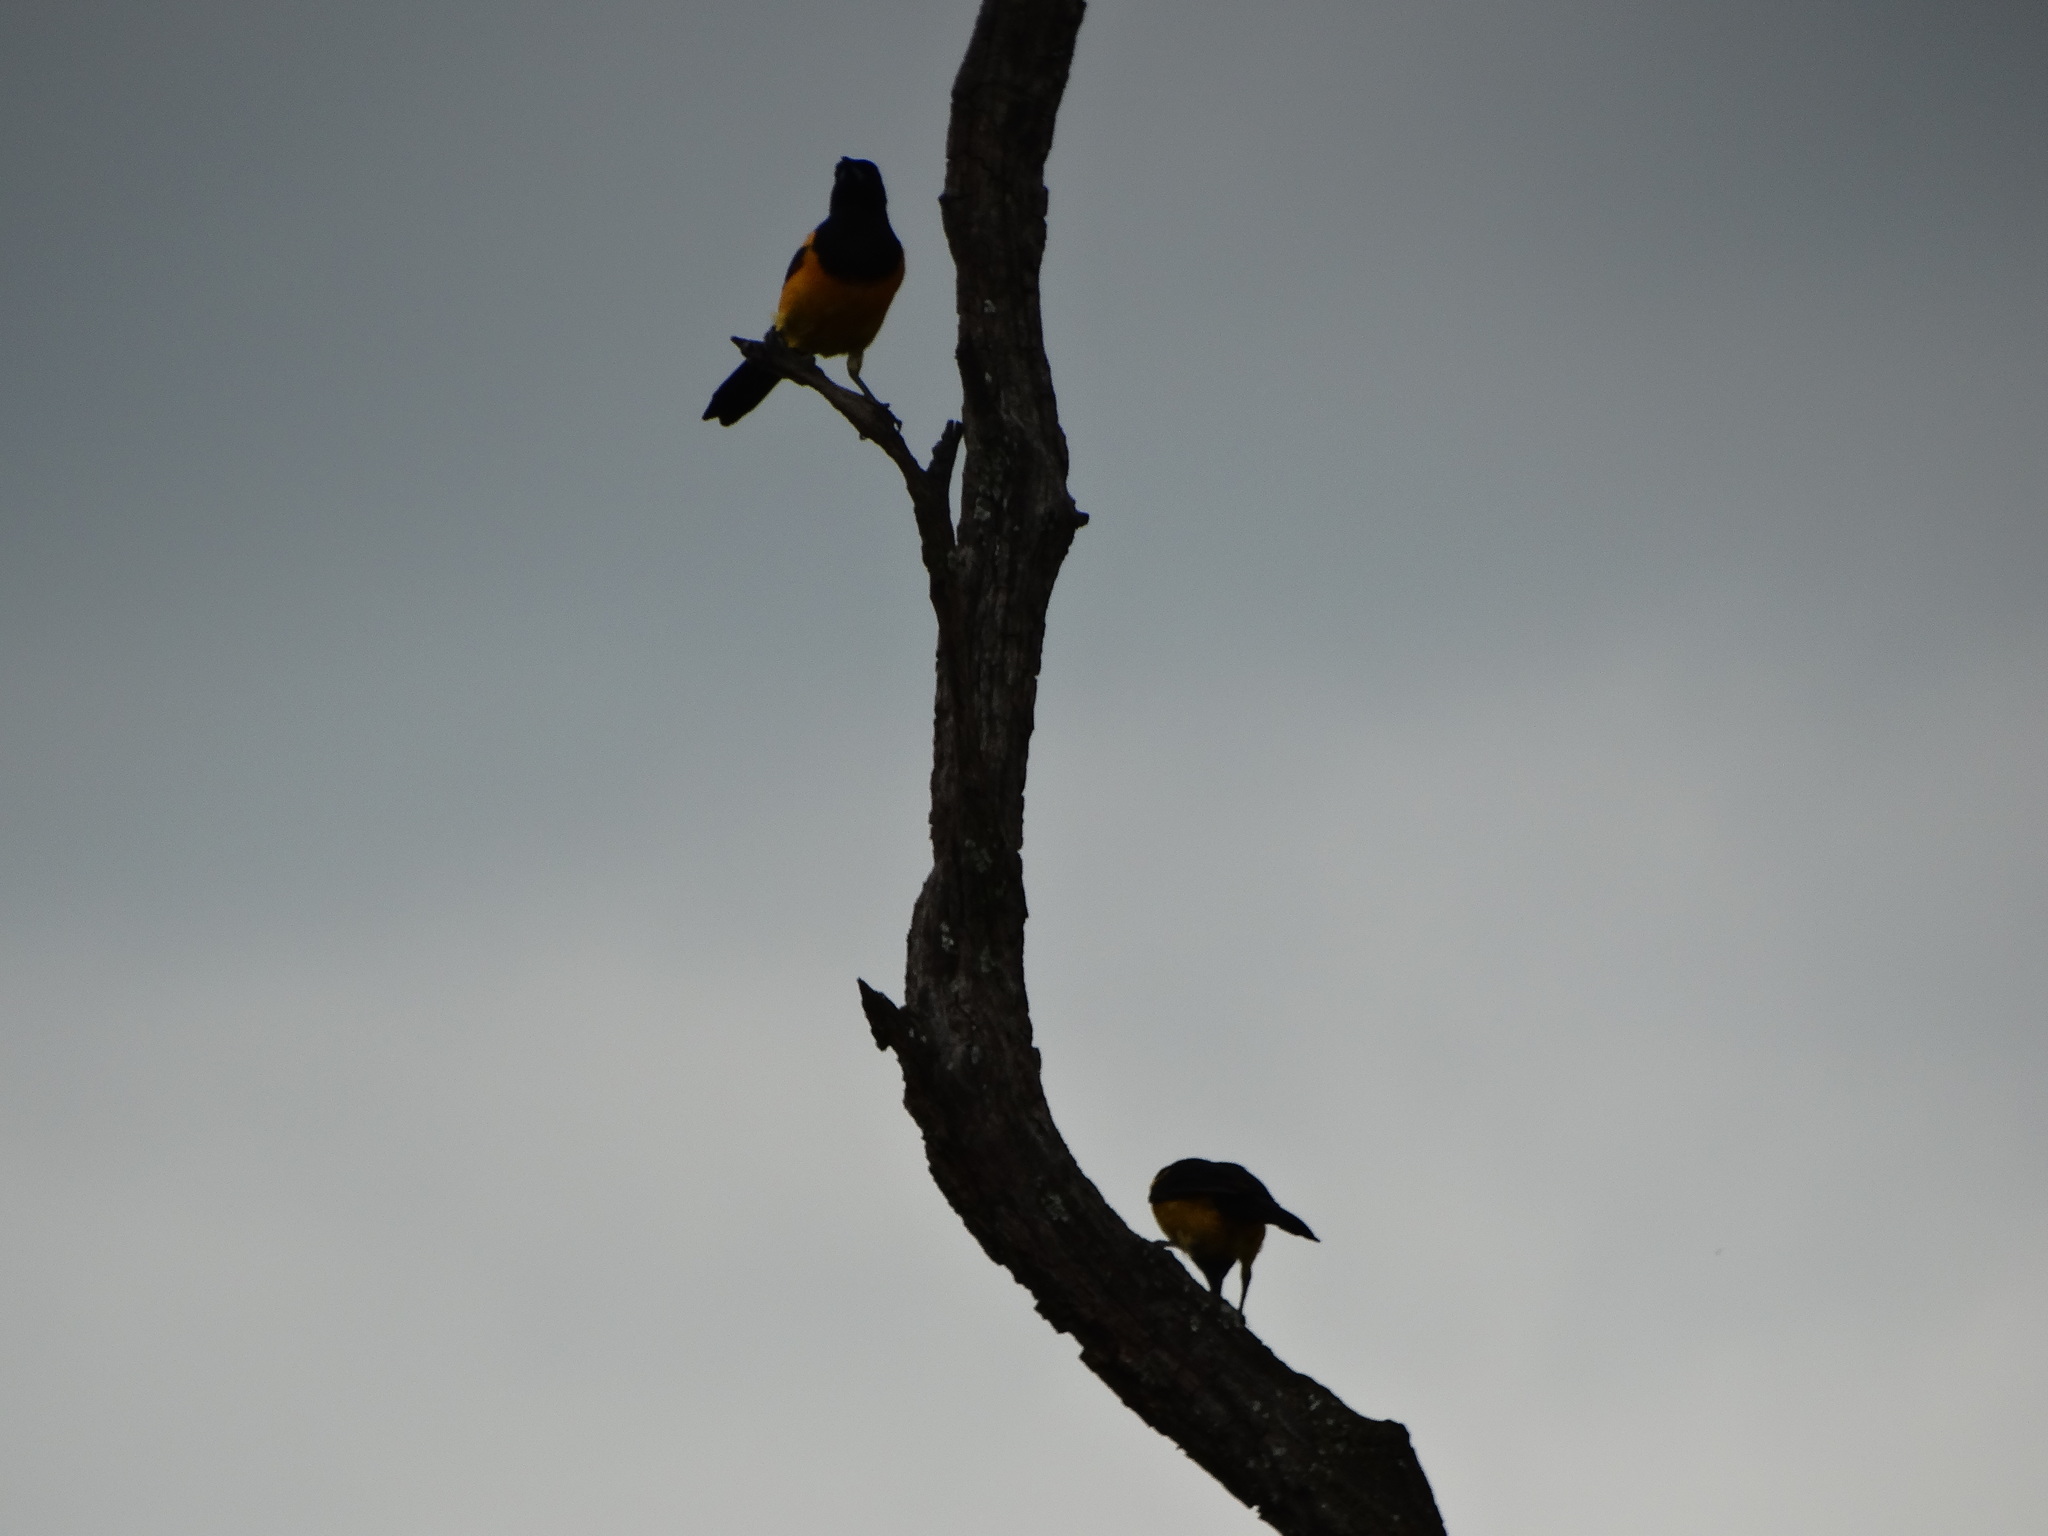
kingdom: Animalia
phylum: Chordata
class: Aves
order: Passeriformes
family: Icteridae
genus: Icterus
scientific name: Icterus wagleri
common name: Black-vented oriole
